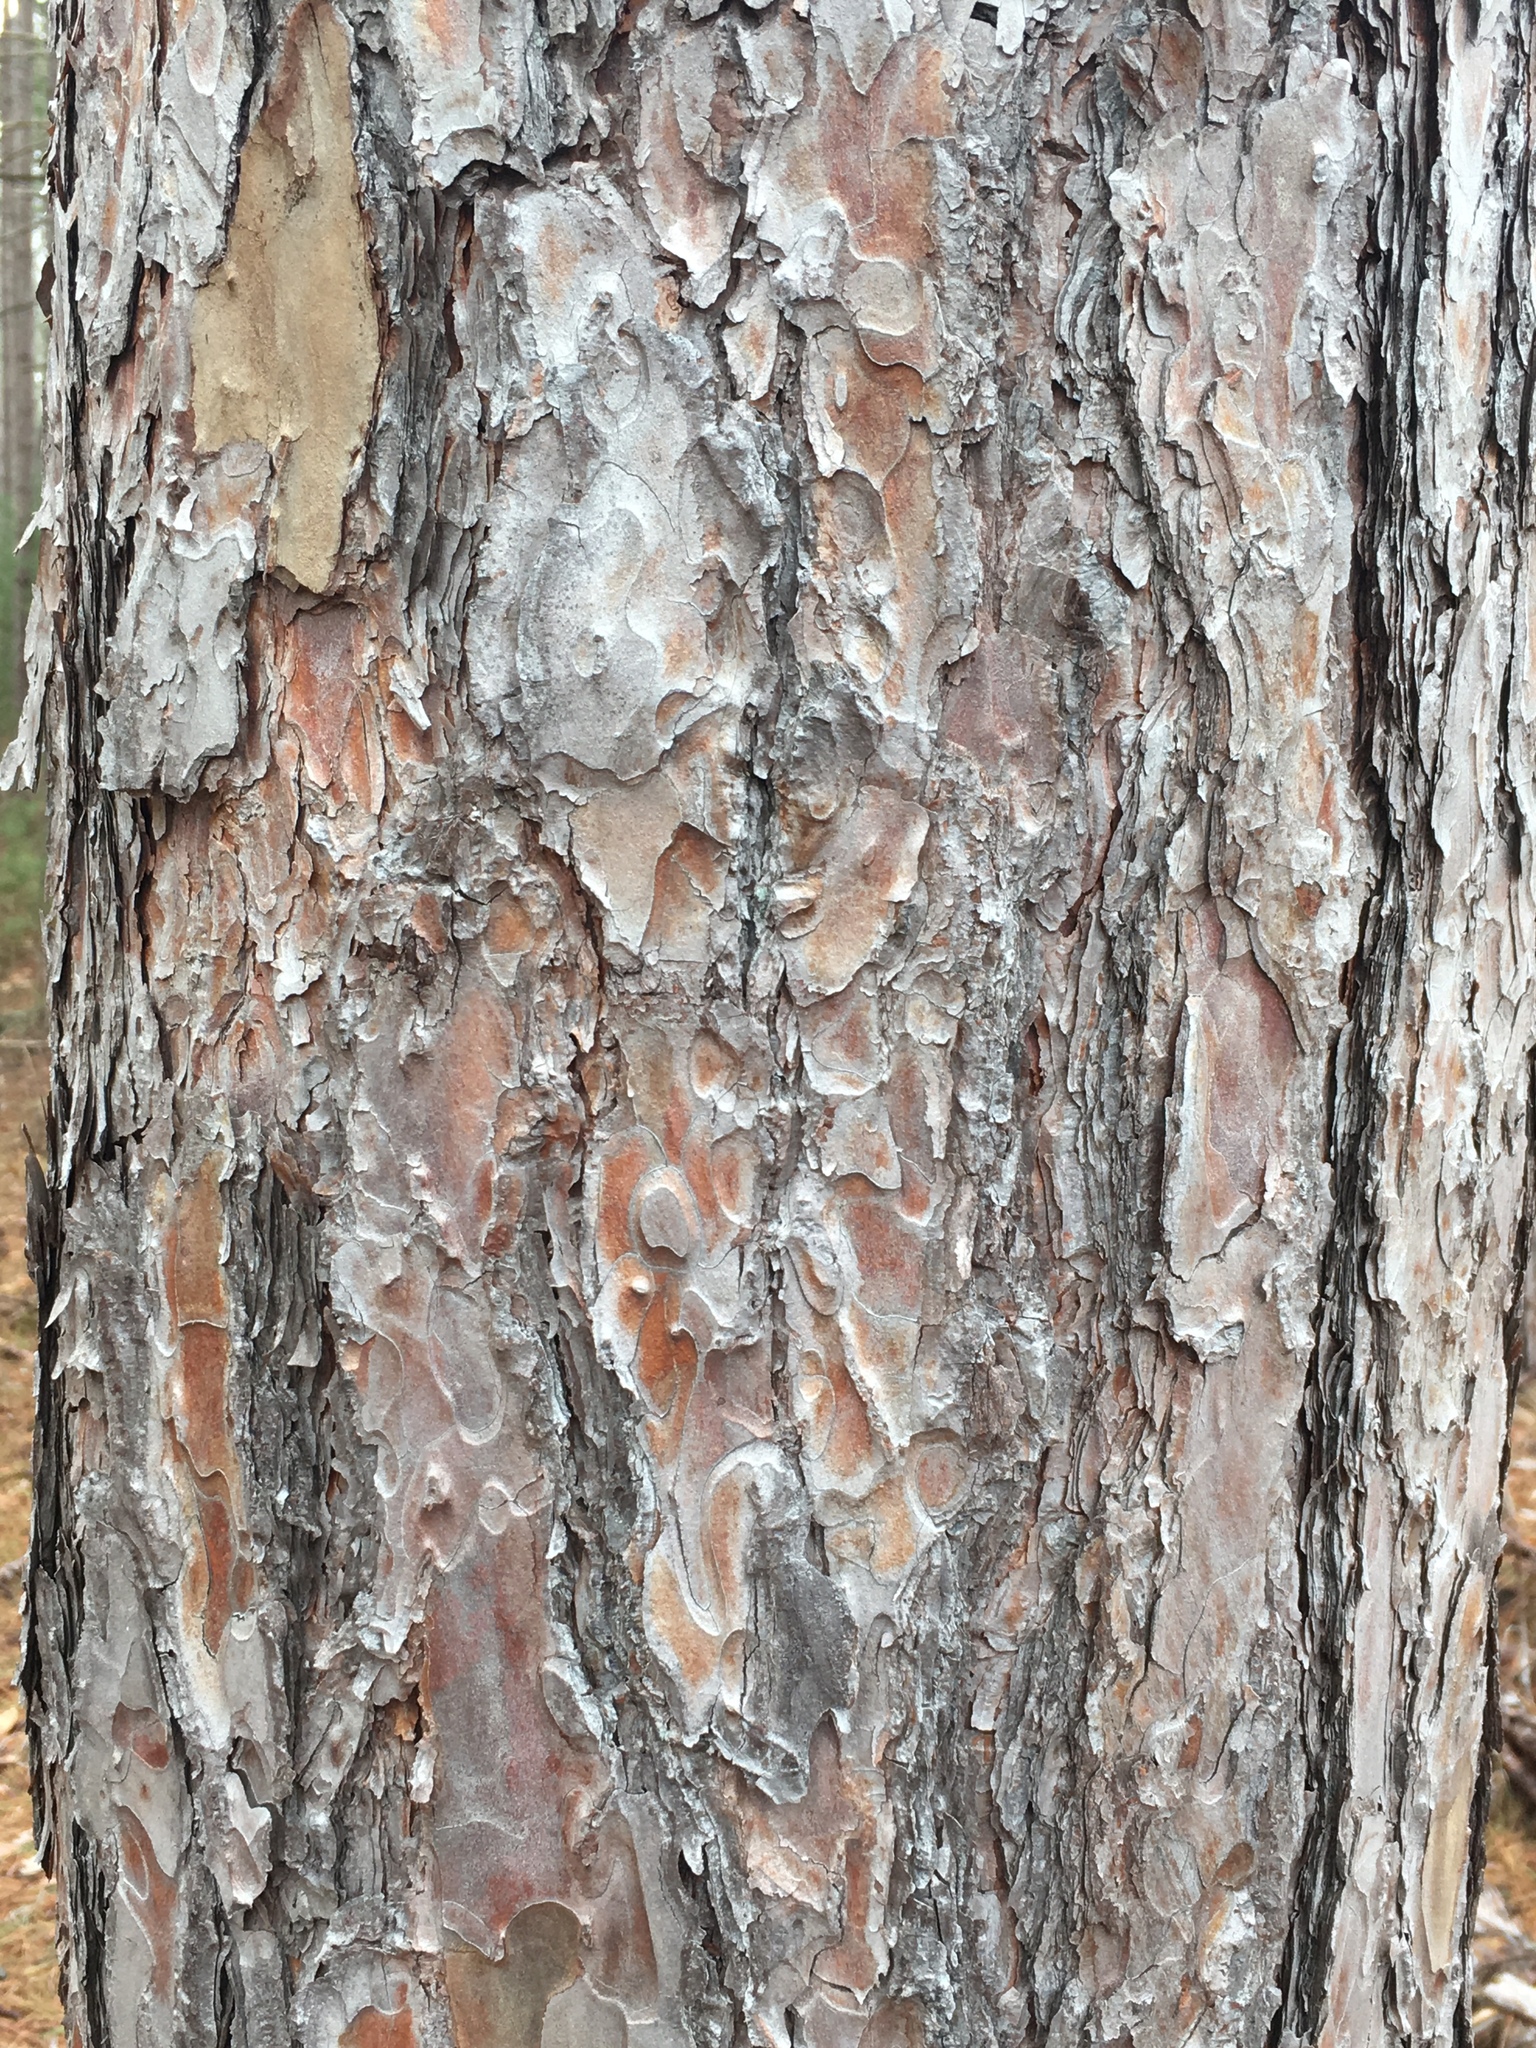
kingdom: Plantae
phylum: Tracheophyta
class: Pinopsida
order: Pinales
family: Pinaceae
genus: Pinus
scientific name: Pinus resinosa
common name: Norway pine
